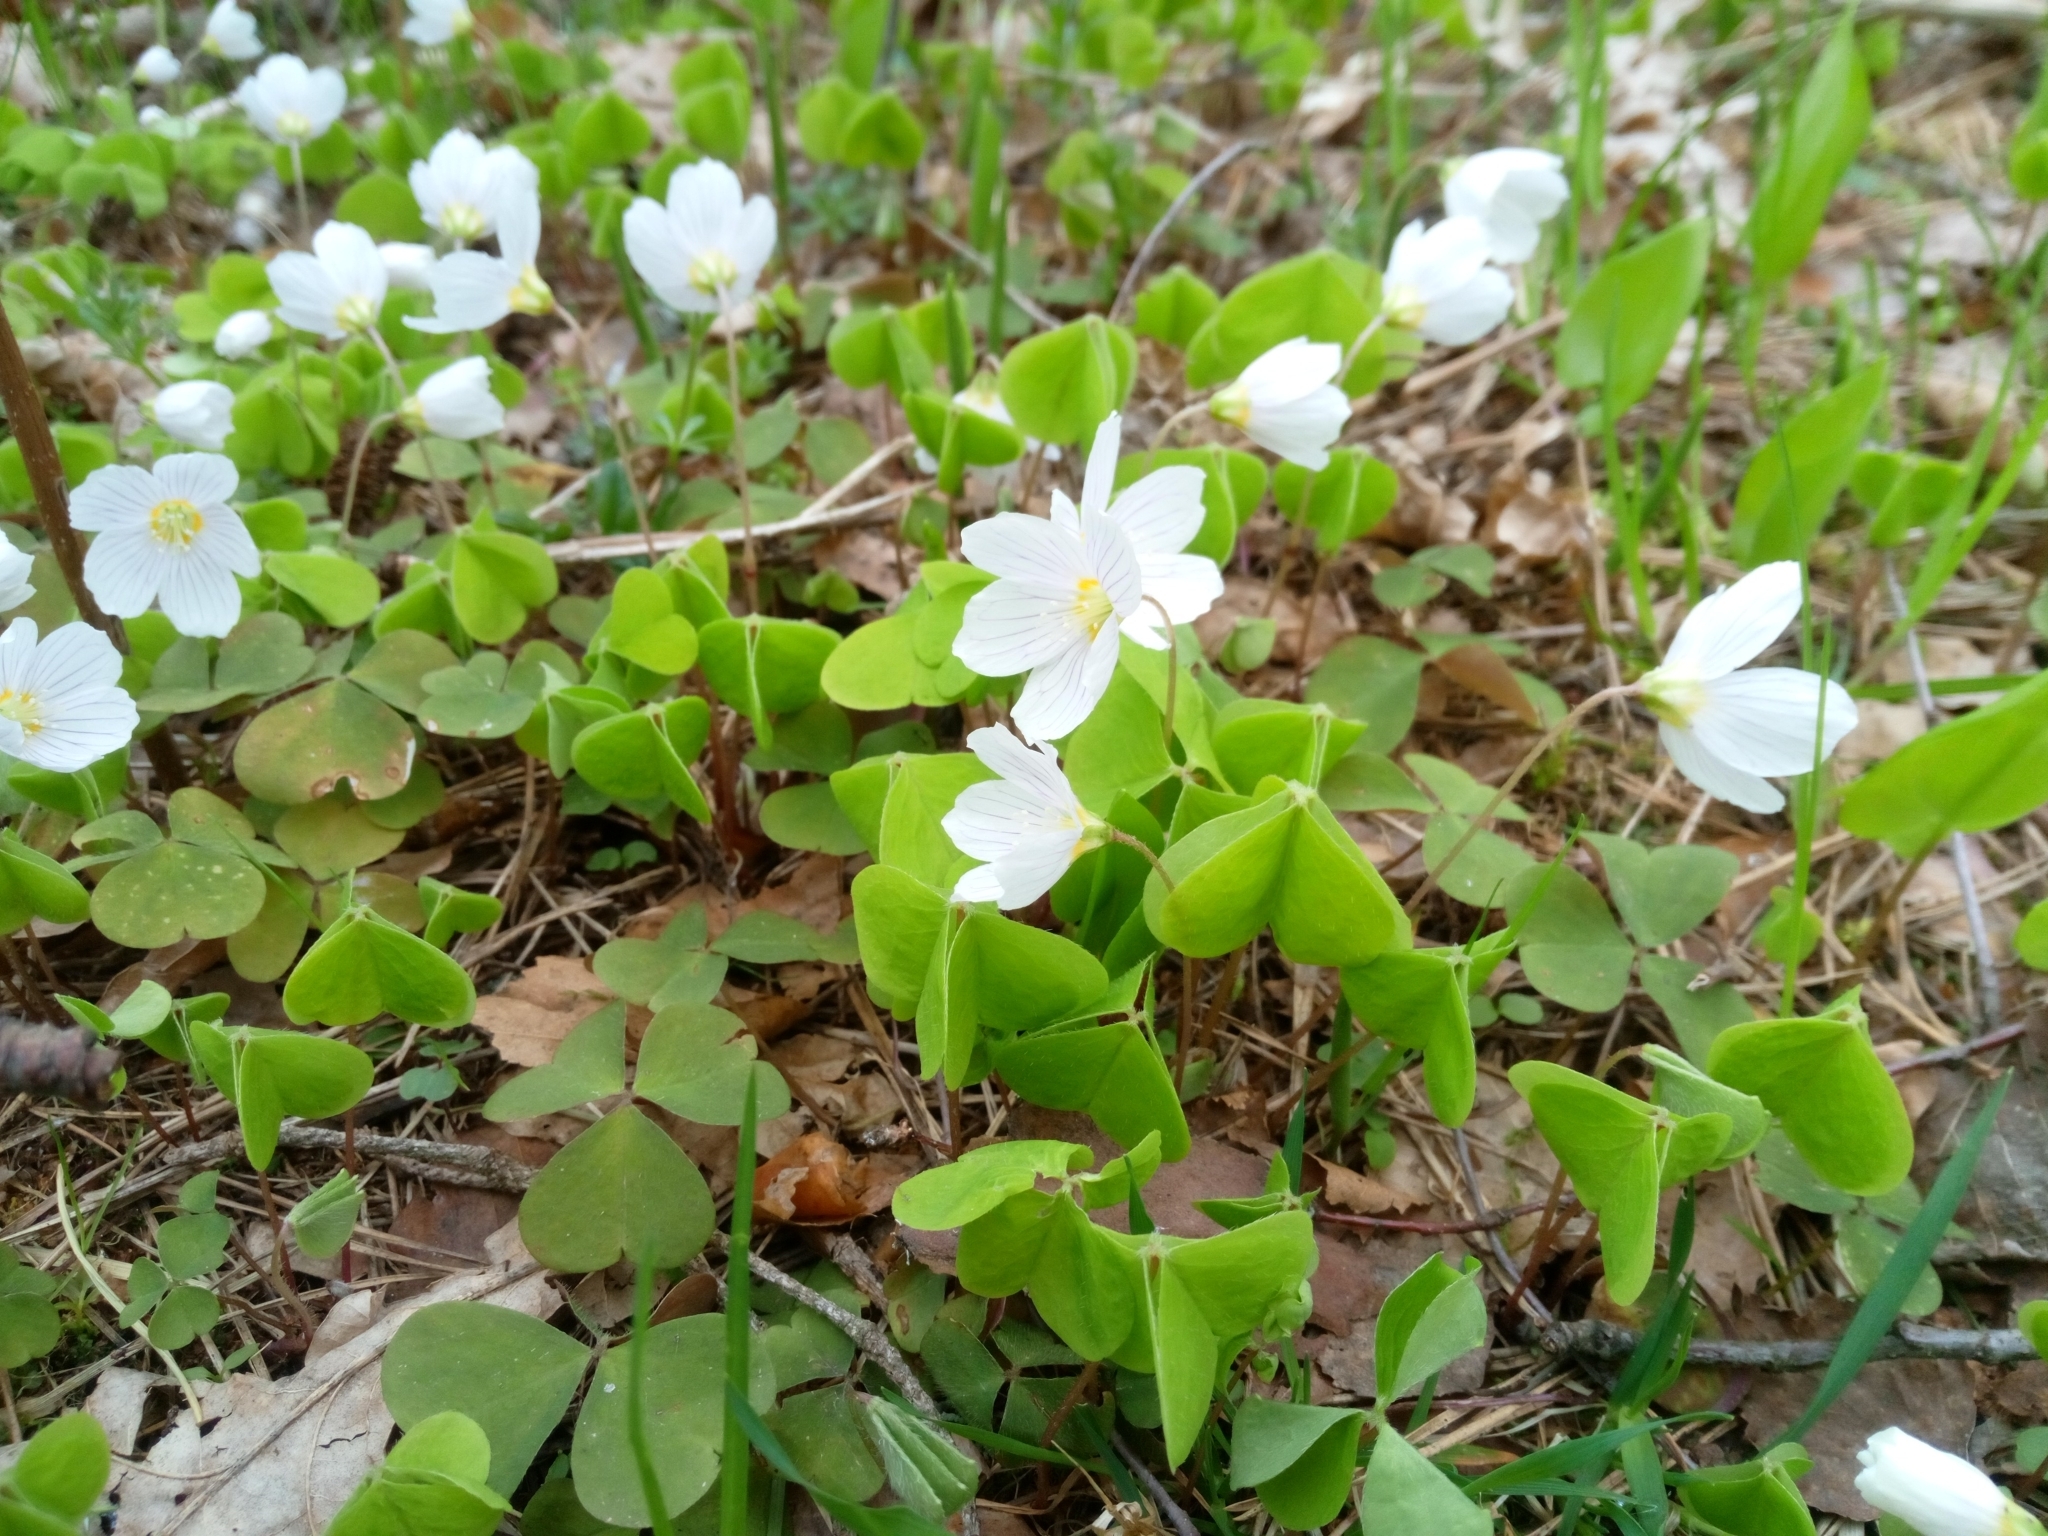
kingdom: Plantae
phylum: Tracheophyta
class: Magnoliopsida
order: Oxalidales
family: Oxalidaceae
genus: Oxalis
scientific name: Oxalis acetosella
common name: Wood-sorrel
